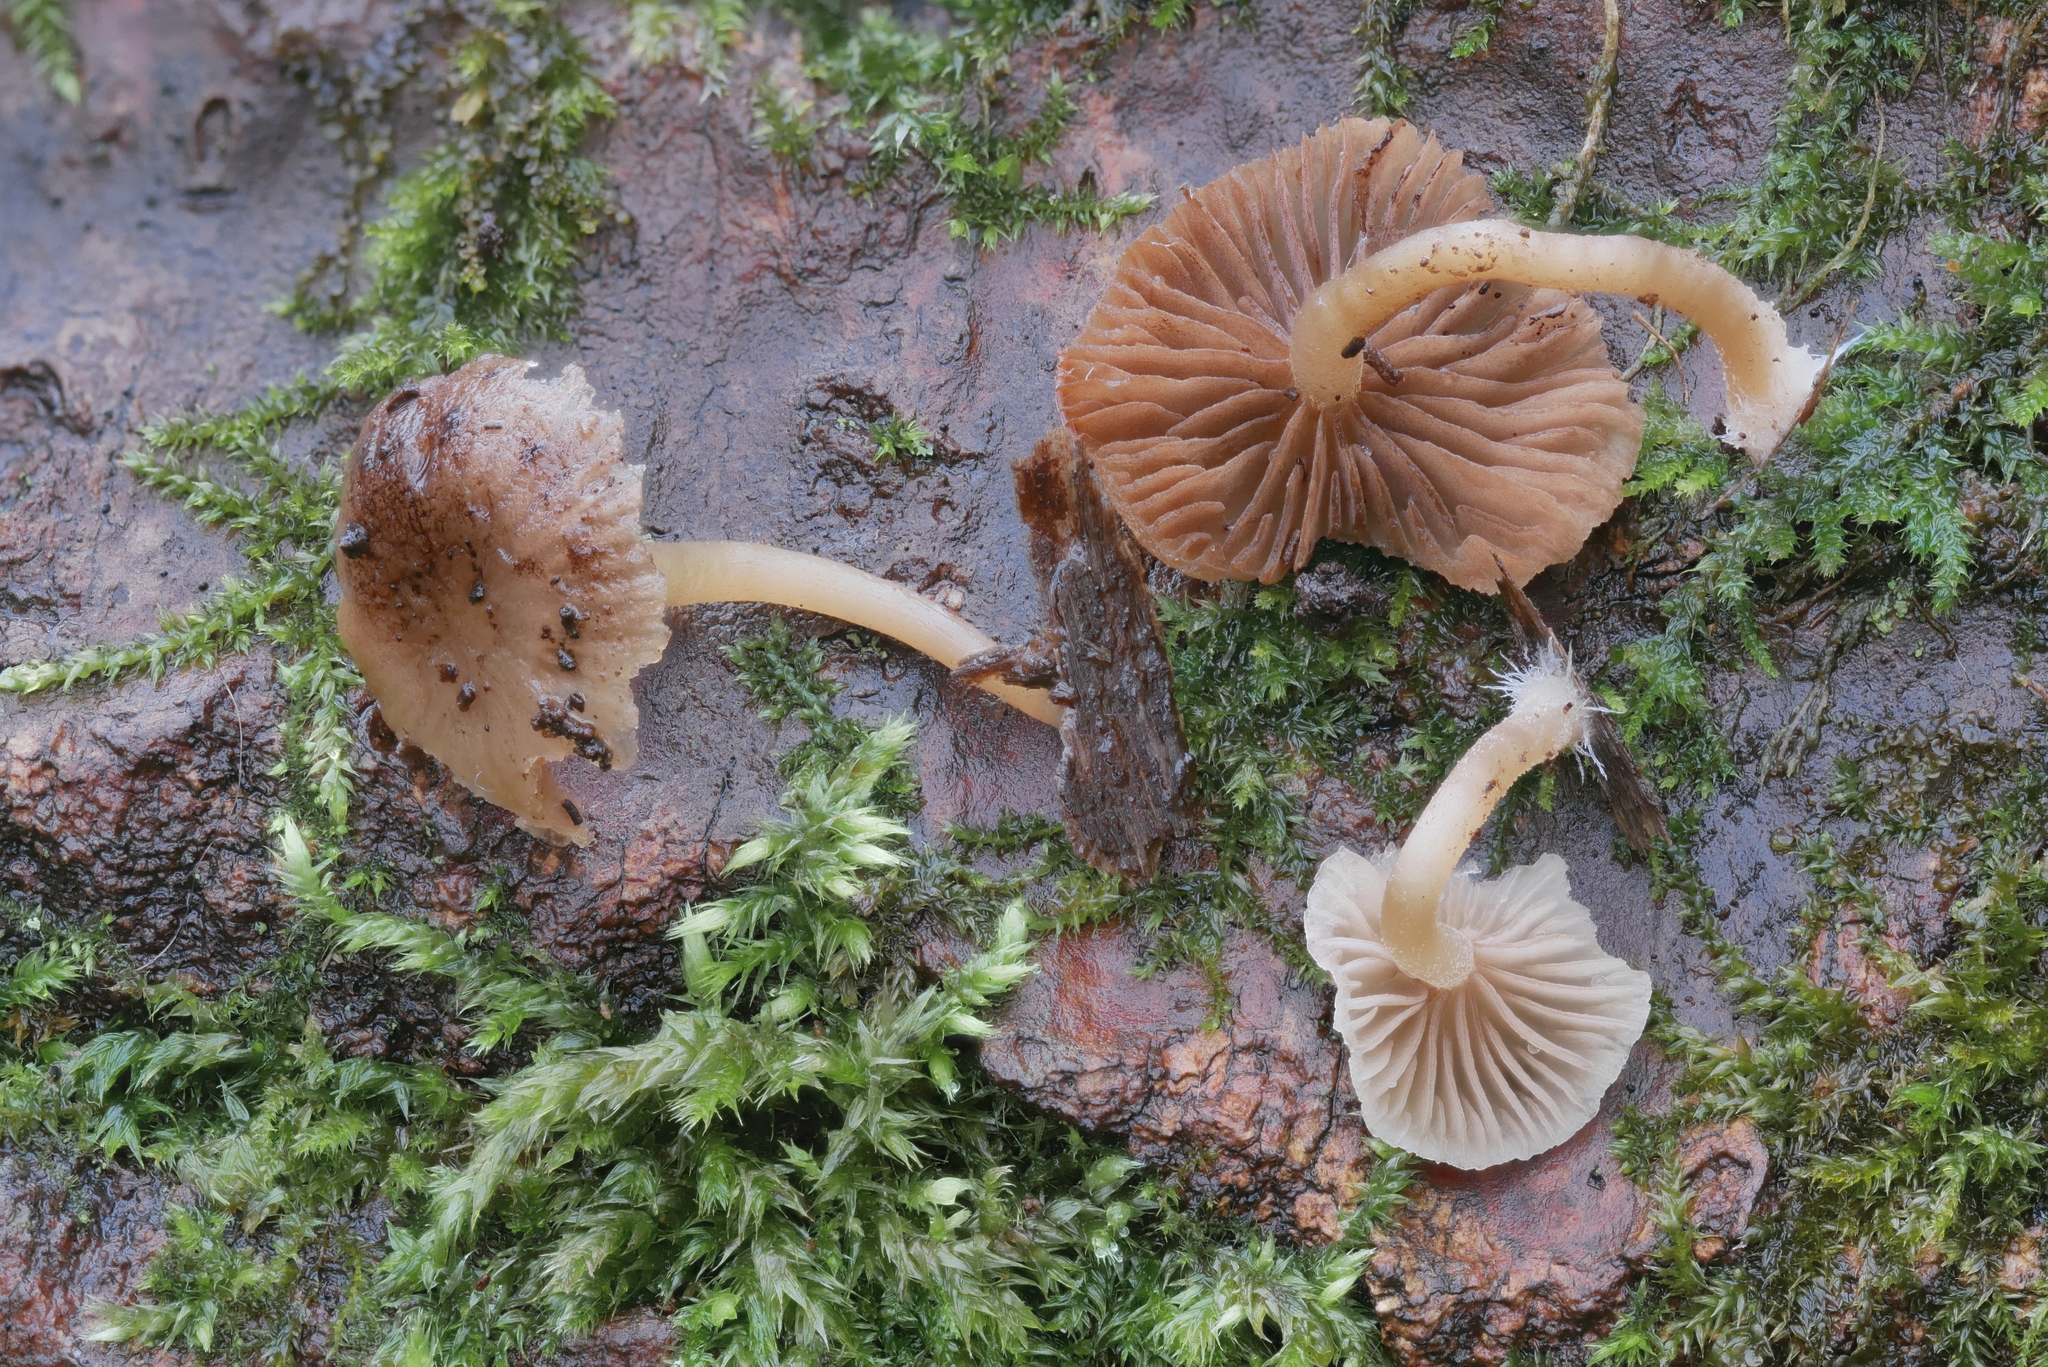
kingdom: Fungi
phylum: Basidiomycota
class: Agaricomycetes
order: Agaricales
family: Psathyrellaceae
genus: Homophron
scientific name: Homophron camptopodum
